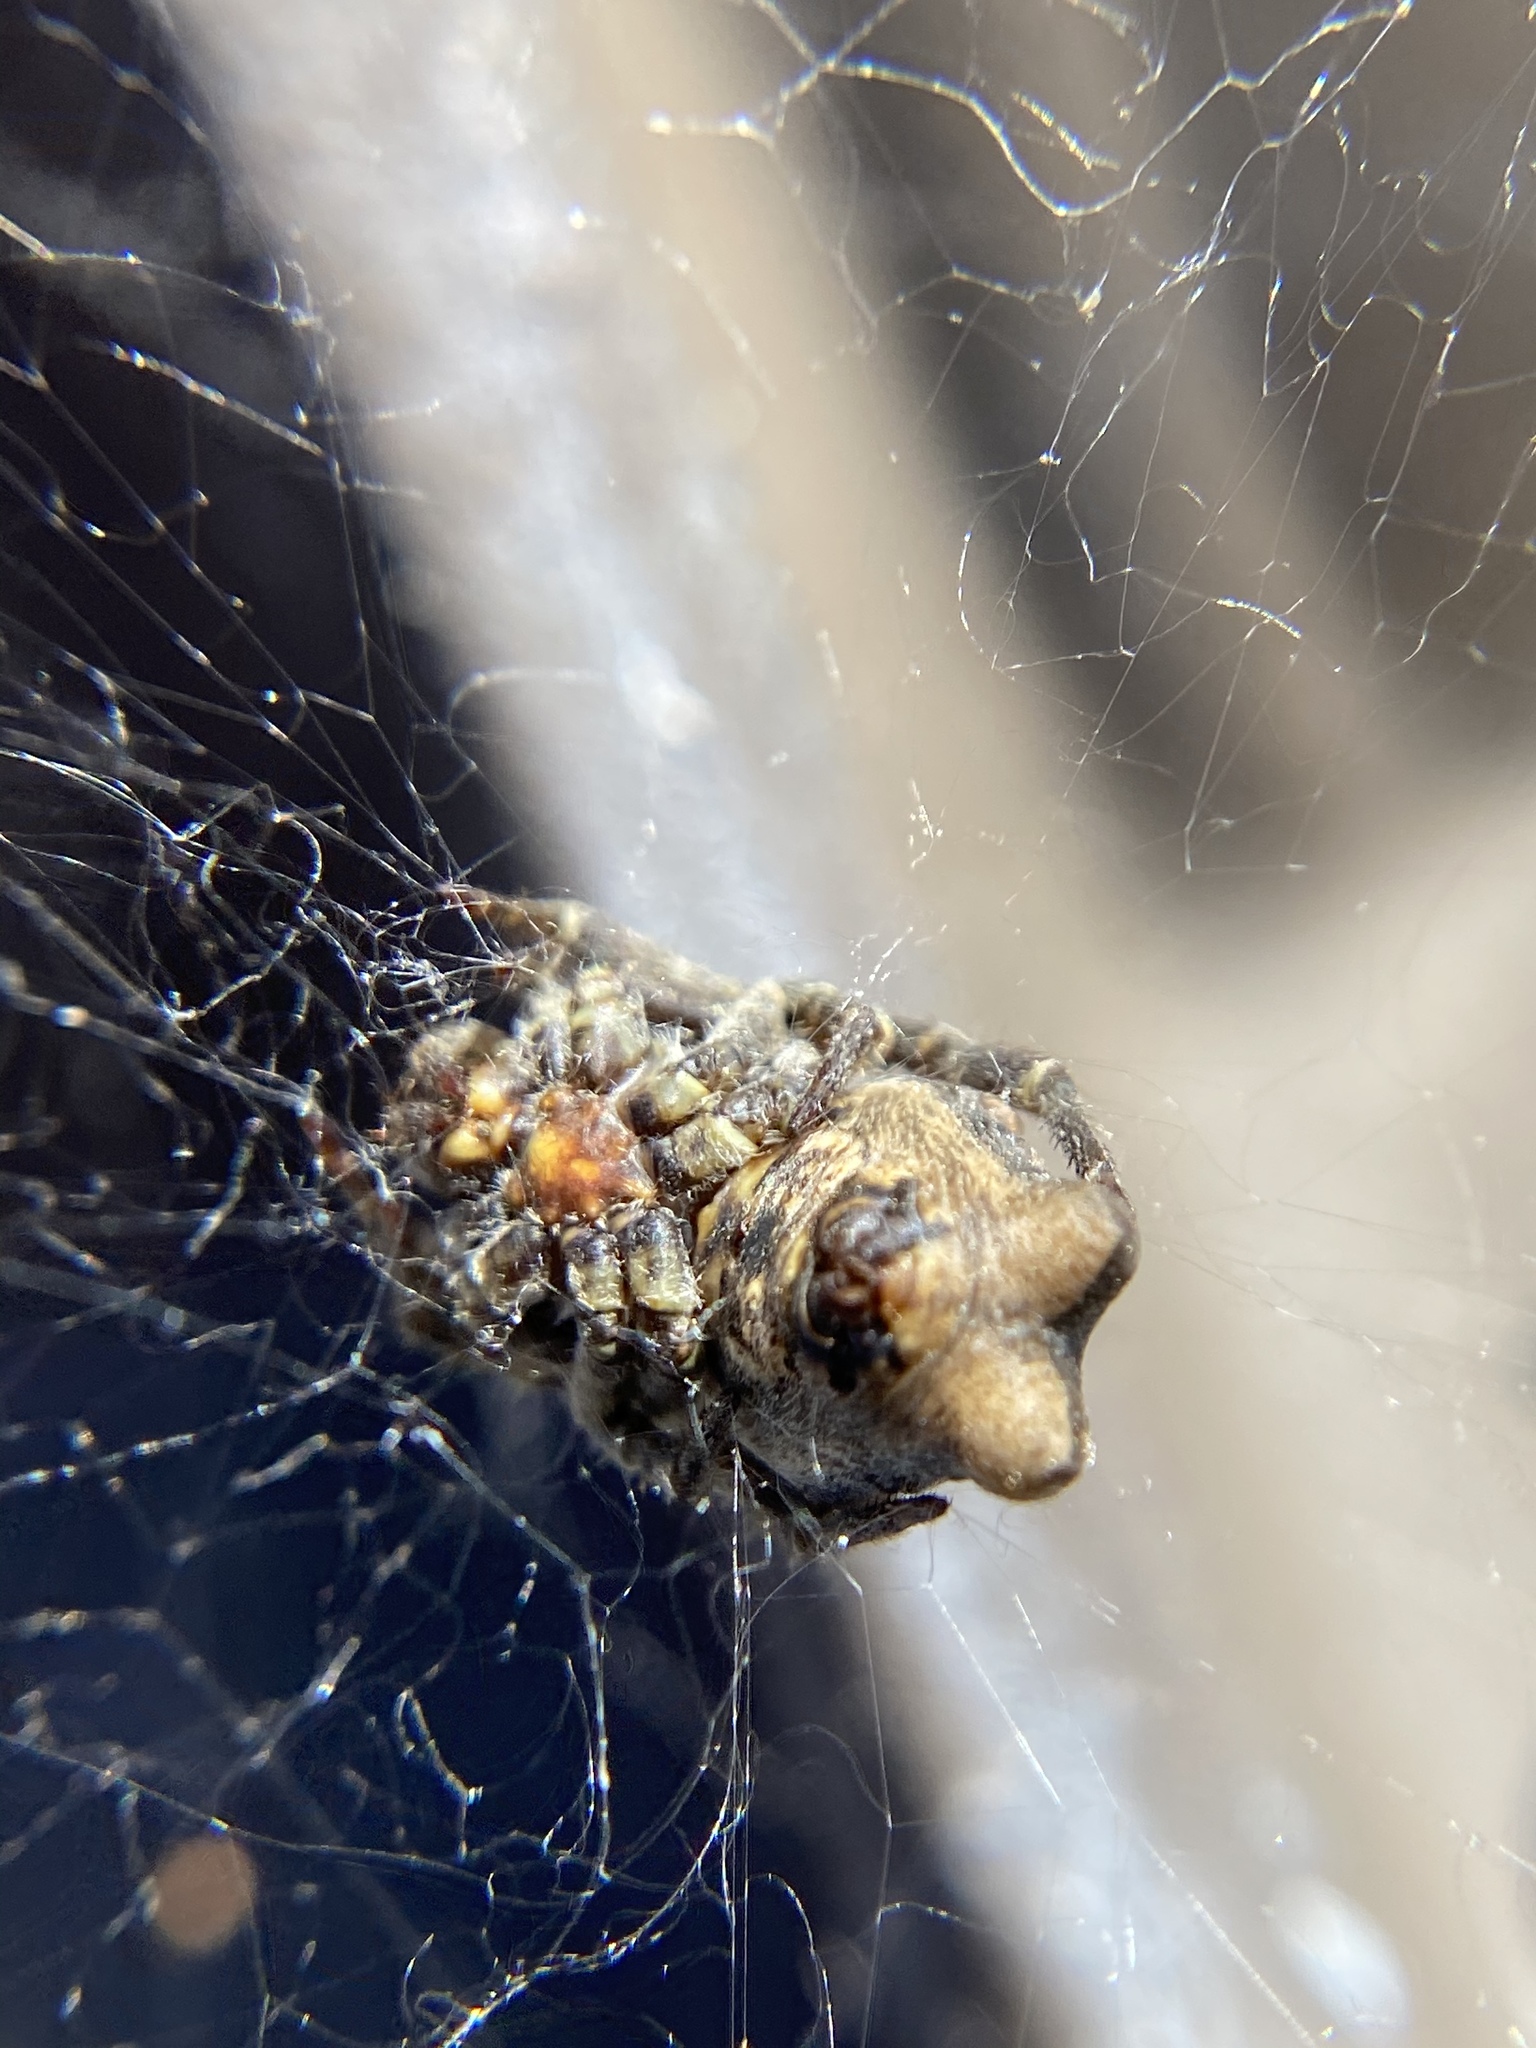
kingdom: Animalia
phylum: Arthropoda
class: Arachnida
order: Araneae
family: Araneidae
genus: Cyrtophora
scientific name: Cyrtophora citricola
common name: Orb weavers
